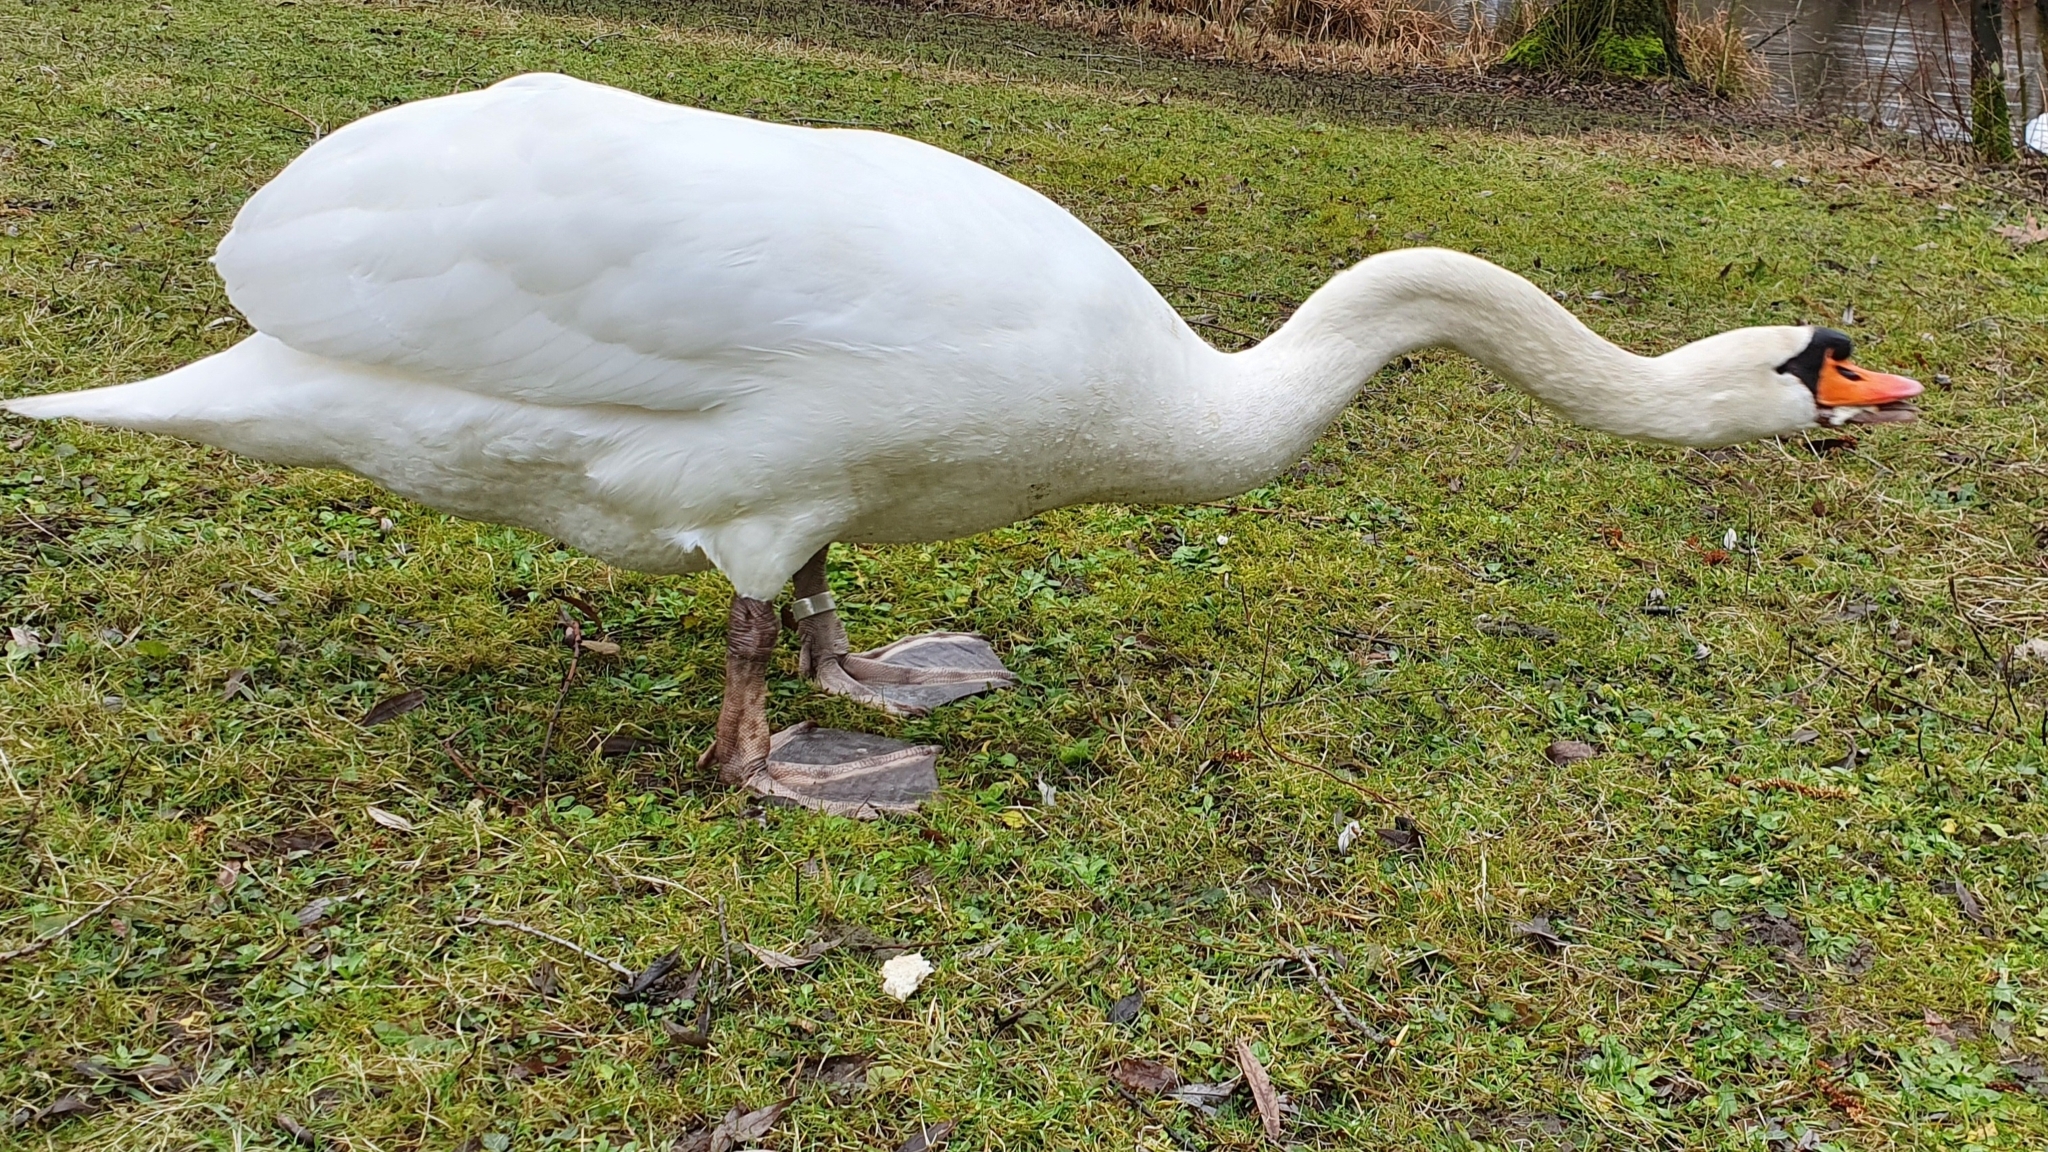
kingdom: Animalia
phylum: Chordata
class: Aves
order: Anseriformes
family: Anatidae
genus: Cygnus
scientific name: Cygnus olor
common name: Mute swan
